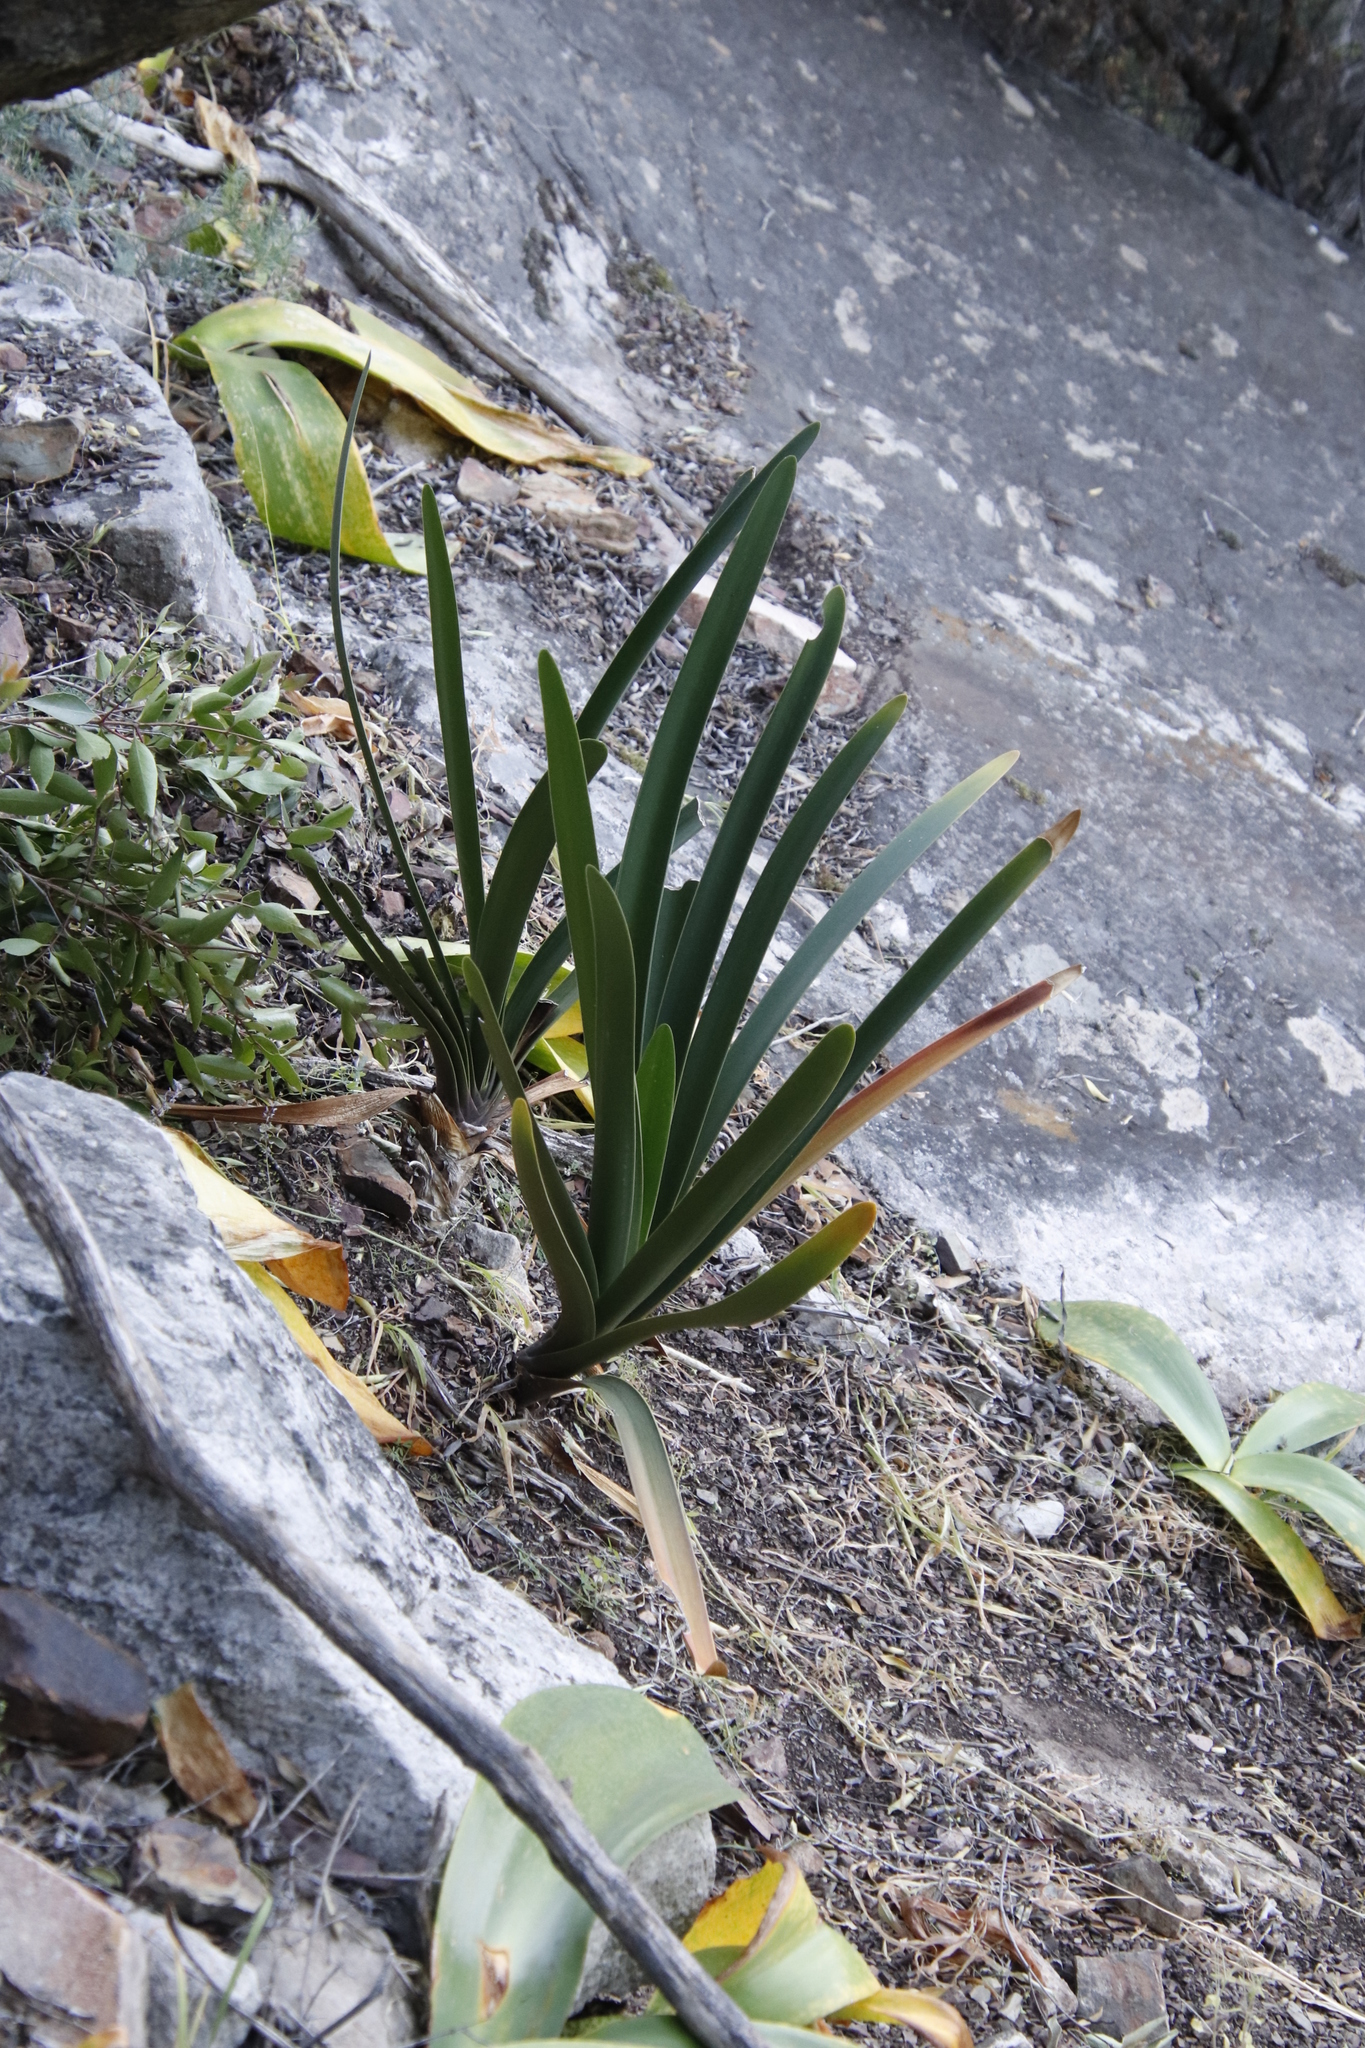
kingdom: Plantae
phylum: Tracheophyta
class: Liliopsida
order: Asparagales
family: Amaryllidaceae
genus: Clivia
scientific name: Clivia mirabilis
